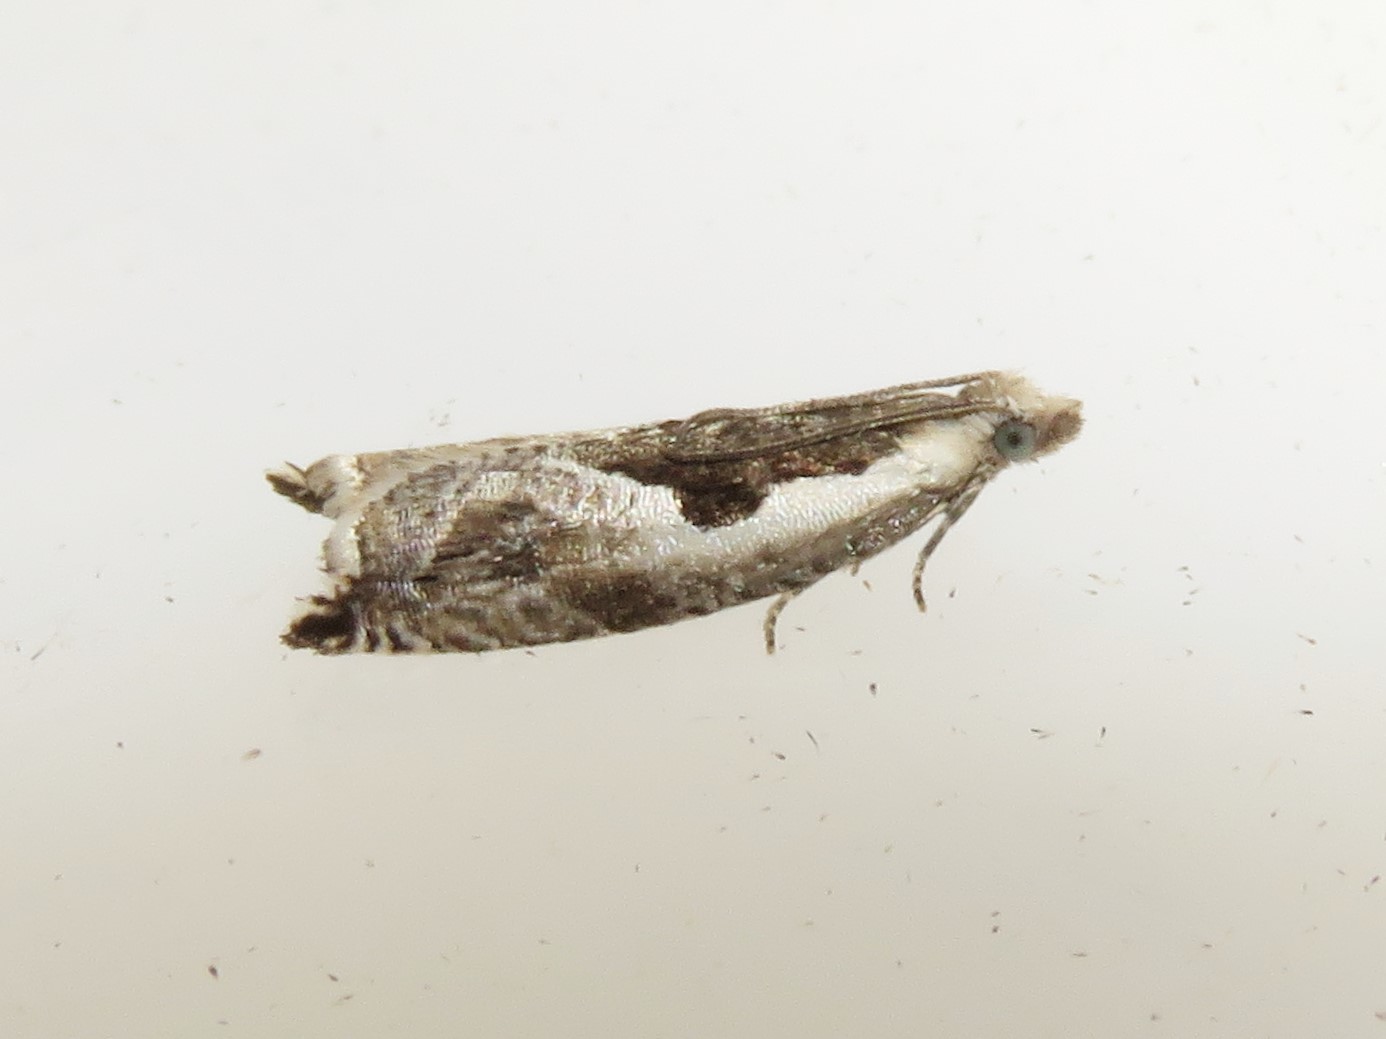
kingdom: Animalia
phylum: Arthropoda
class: Insecta
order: Lepidoptera
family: Tortricidae
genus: Ancylis
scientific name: Ancylis sheppardana
